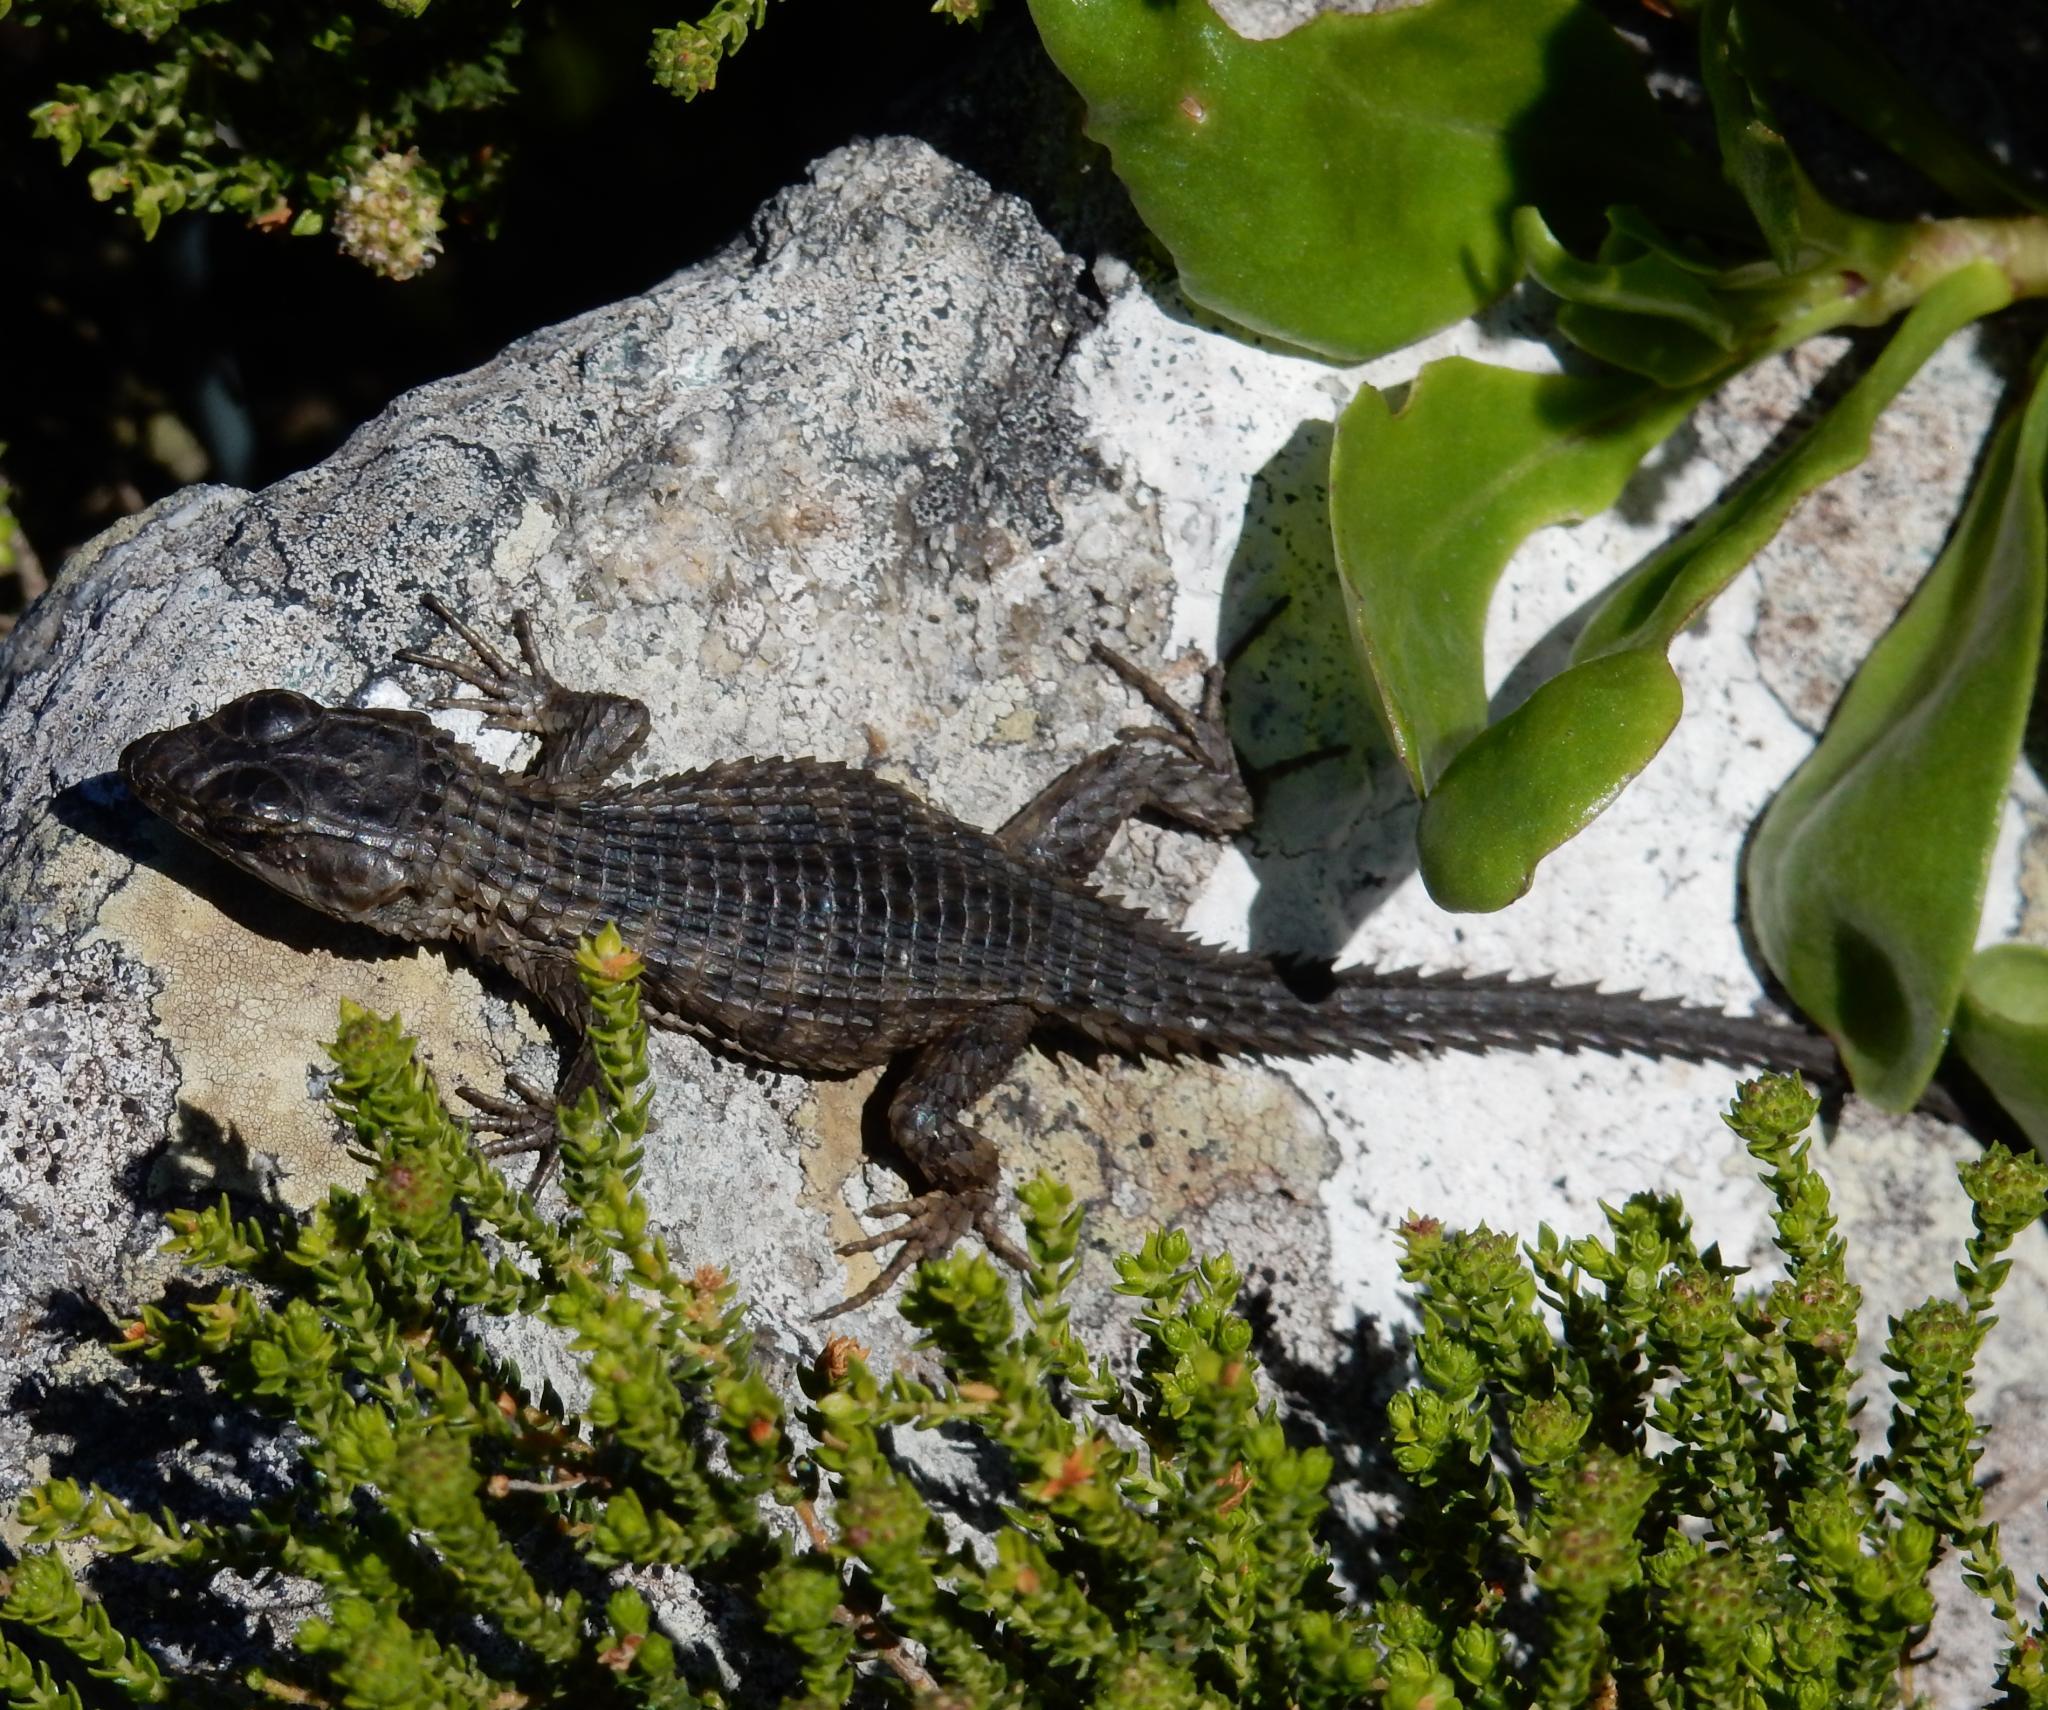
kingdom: Animalia
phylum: Chordata
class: Squamata
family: Cordylidae
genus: Cordylus
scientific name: Cordylus cordylus
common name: Cape girdled lizard
